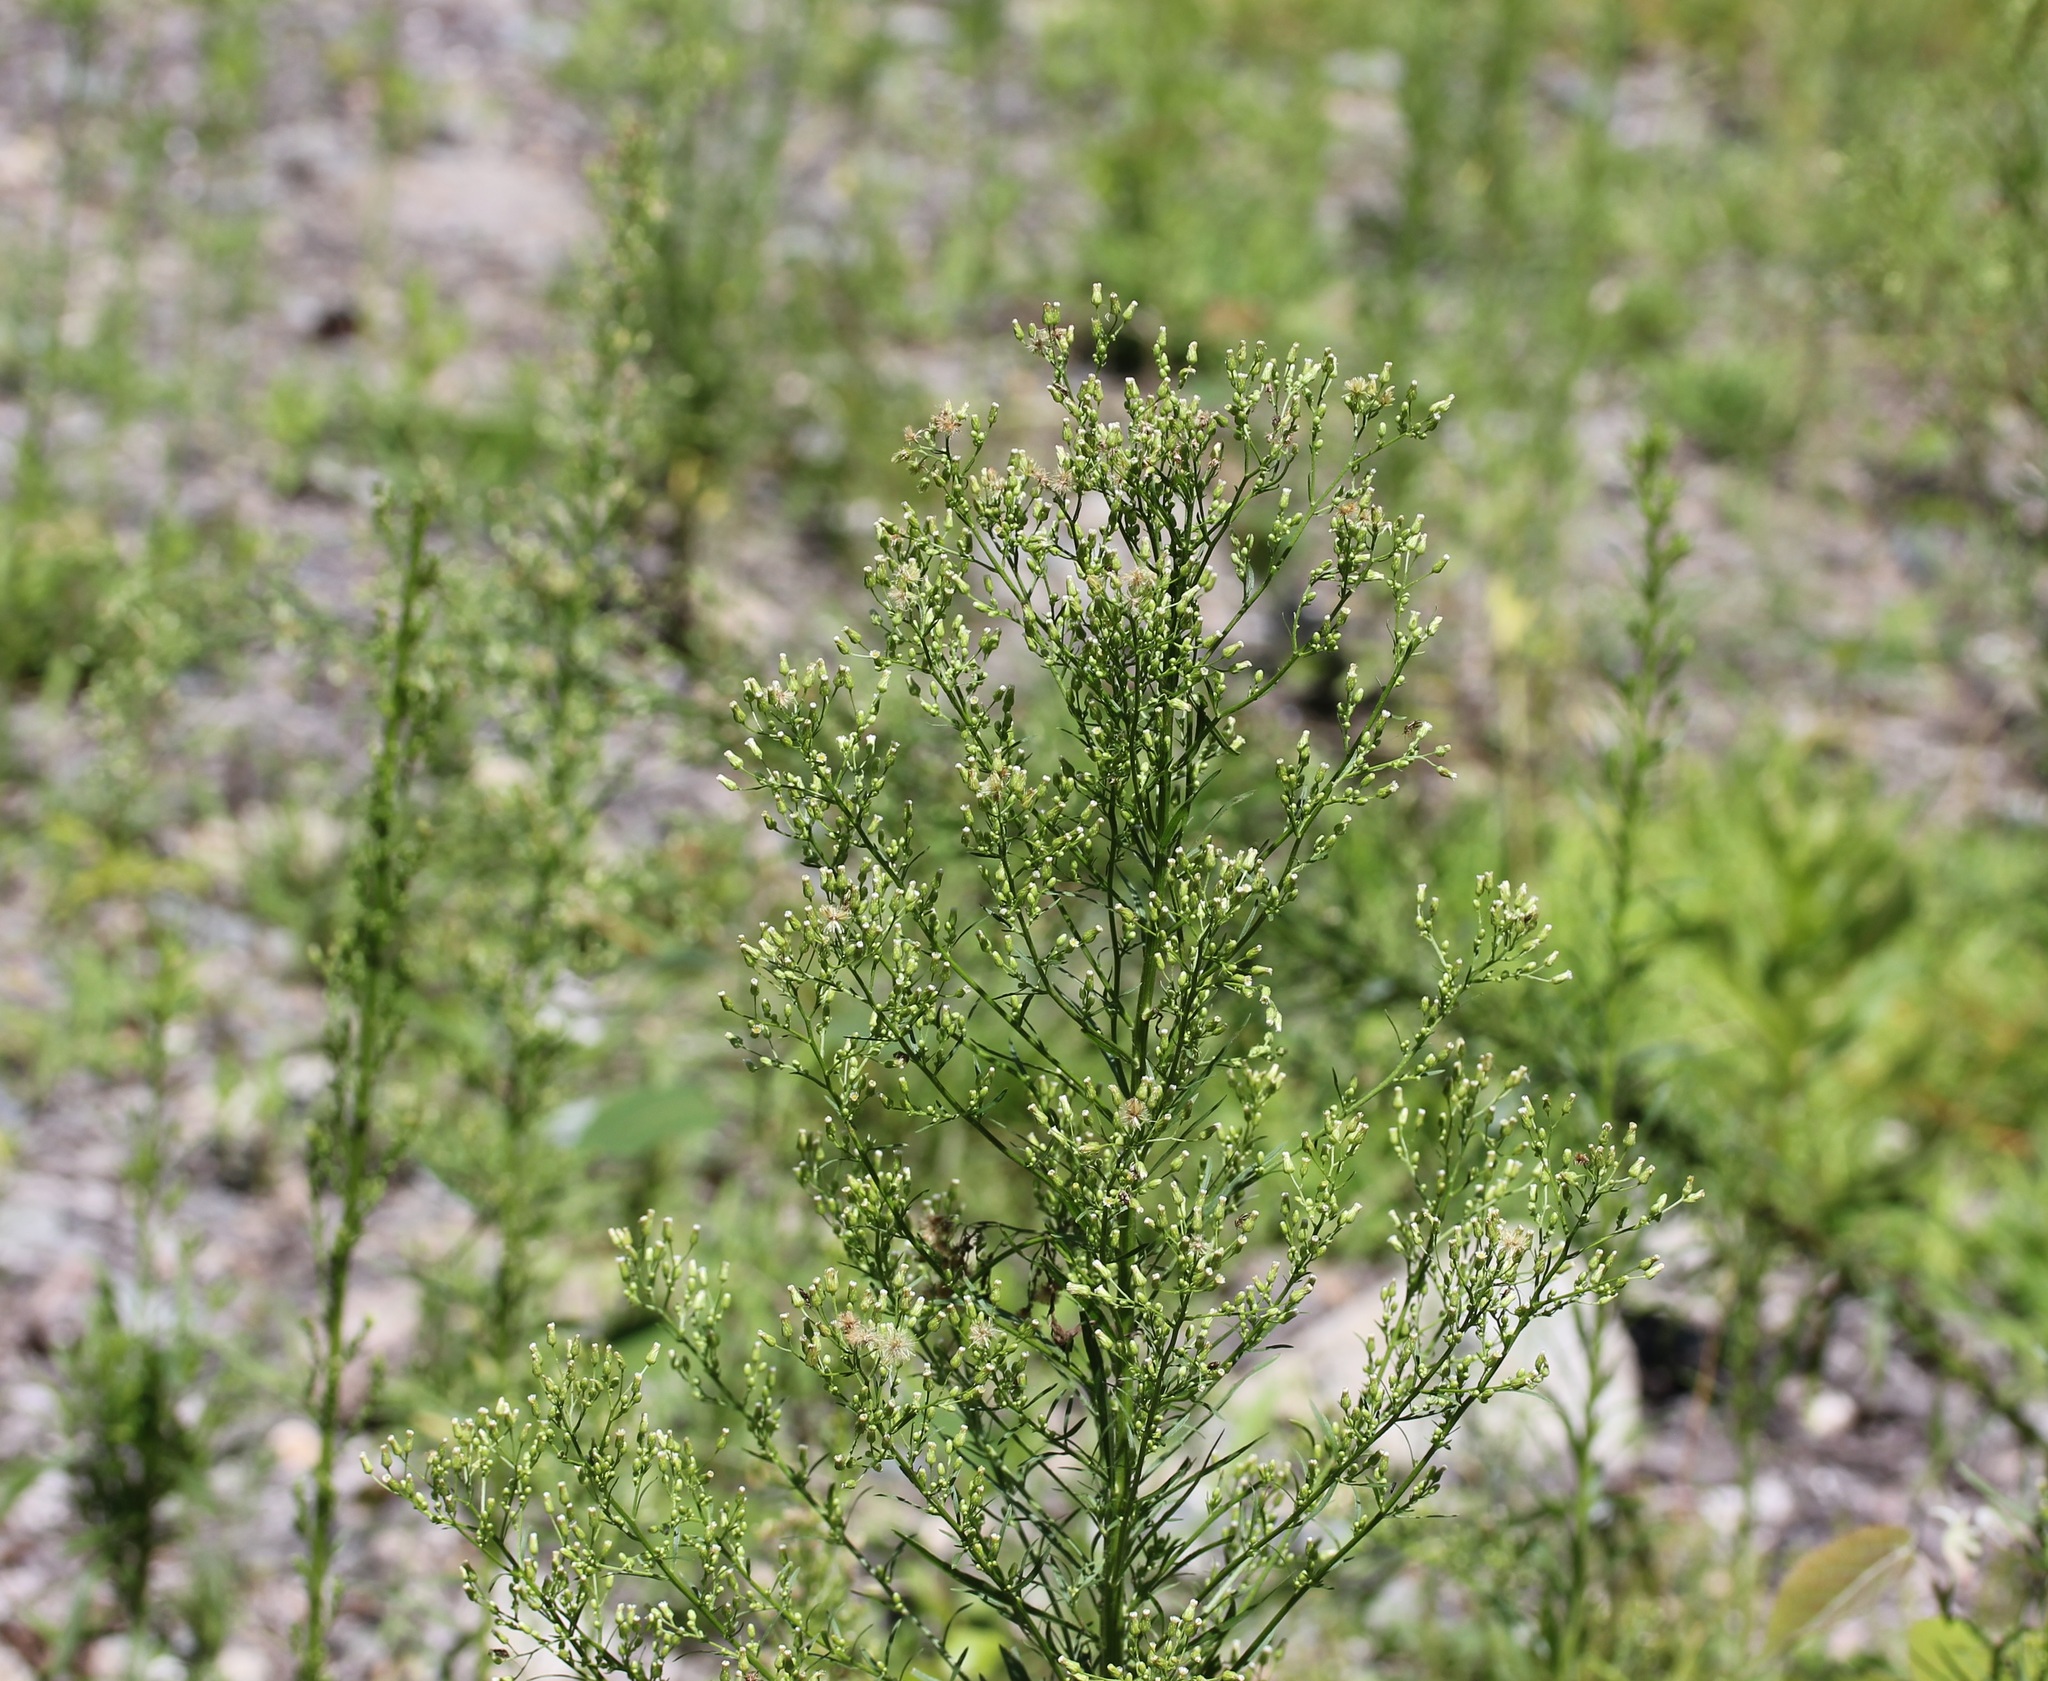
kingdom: Plantae
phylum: Tracheophyta
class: Magnoliopsida
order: Asterales
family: Asteraceae
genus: Erigeron
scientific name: Erigeron canadensis
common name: Canadian fleabane
